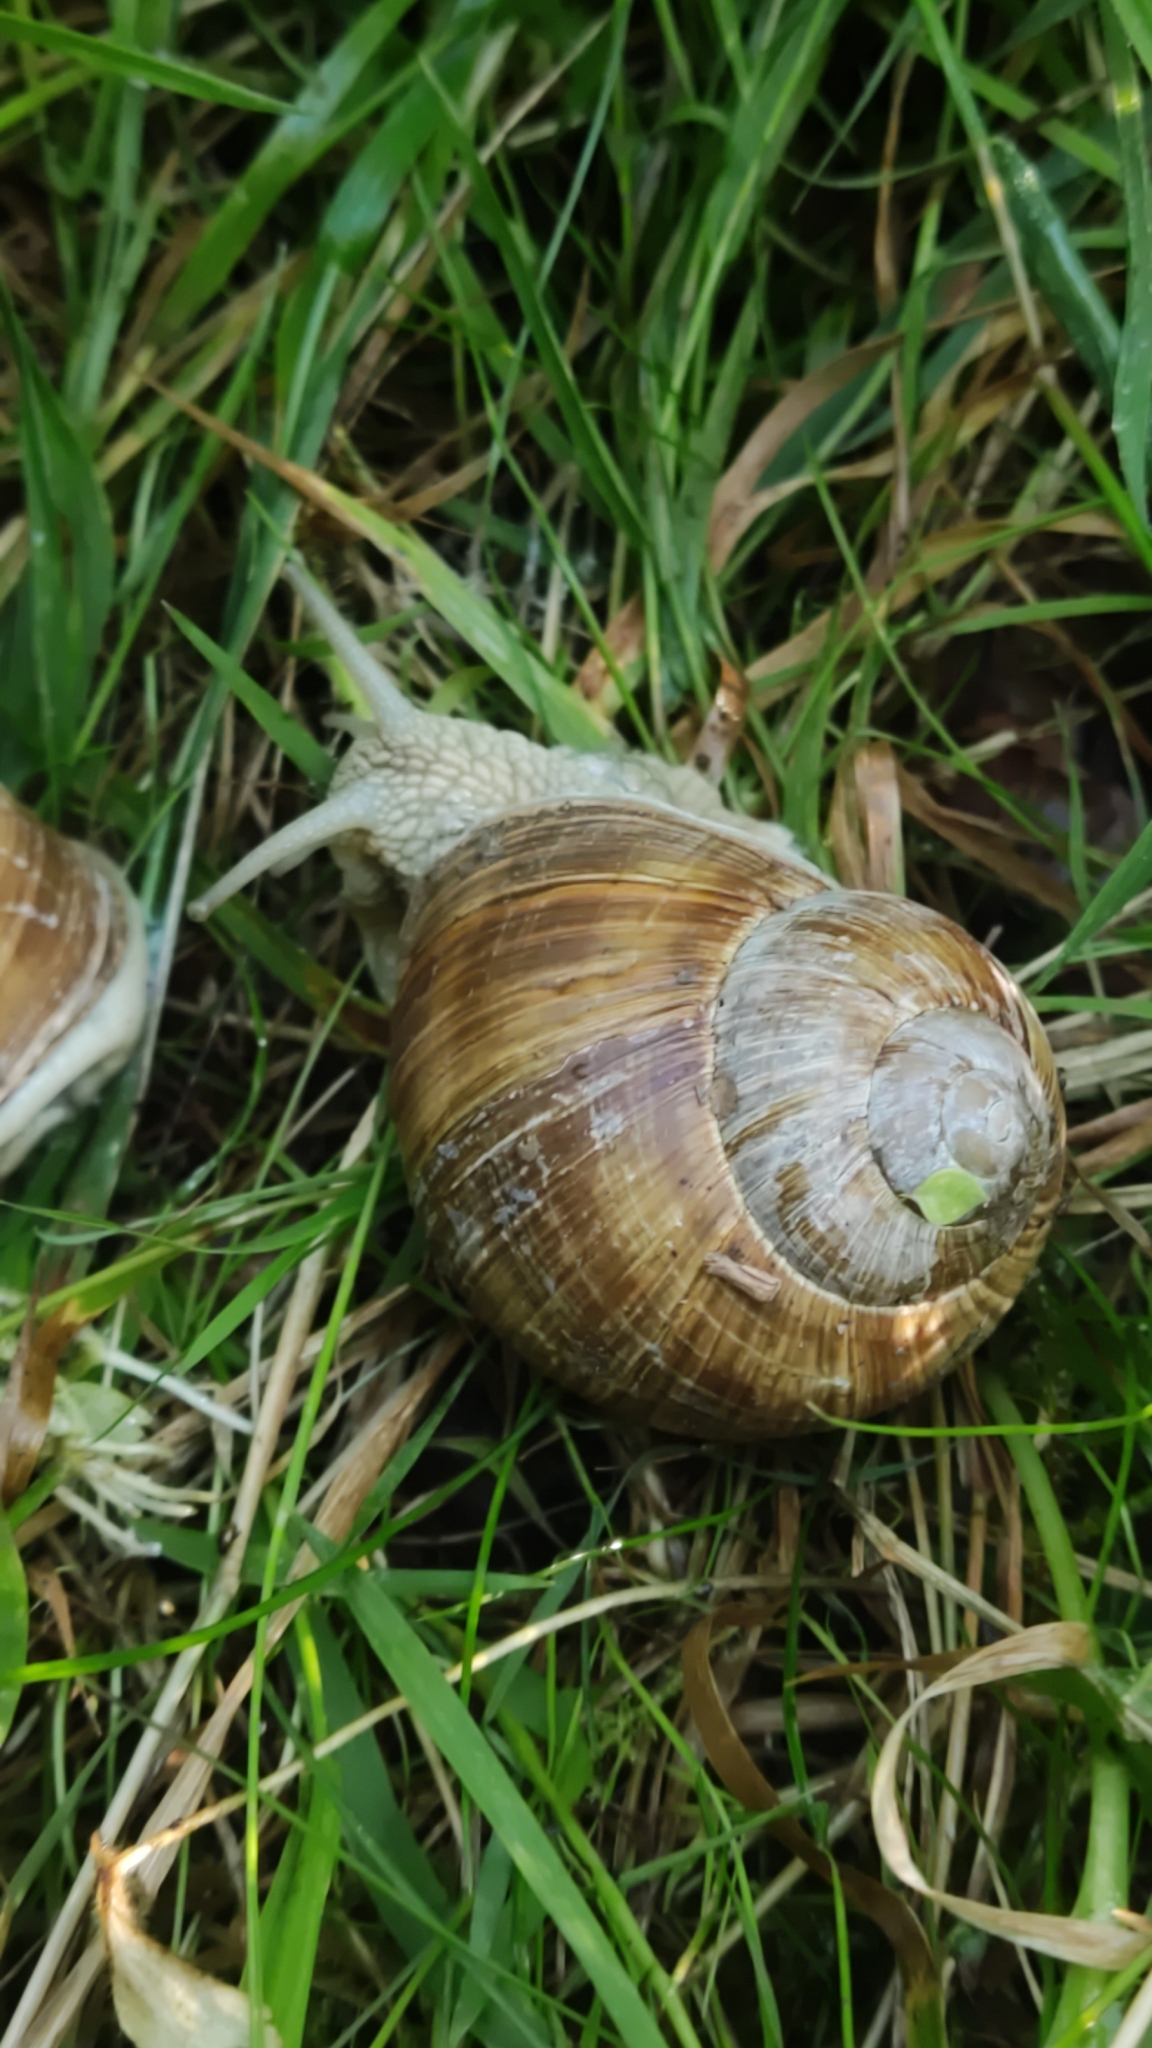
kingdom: Animalia
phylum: Mollusca
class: Gastropoda
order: Stylommatophora
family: Helicidae
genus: Helix
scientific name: Helix pomatia
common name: Roman snail
